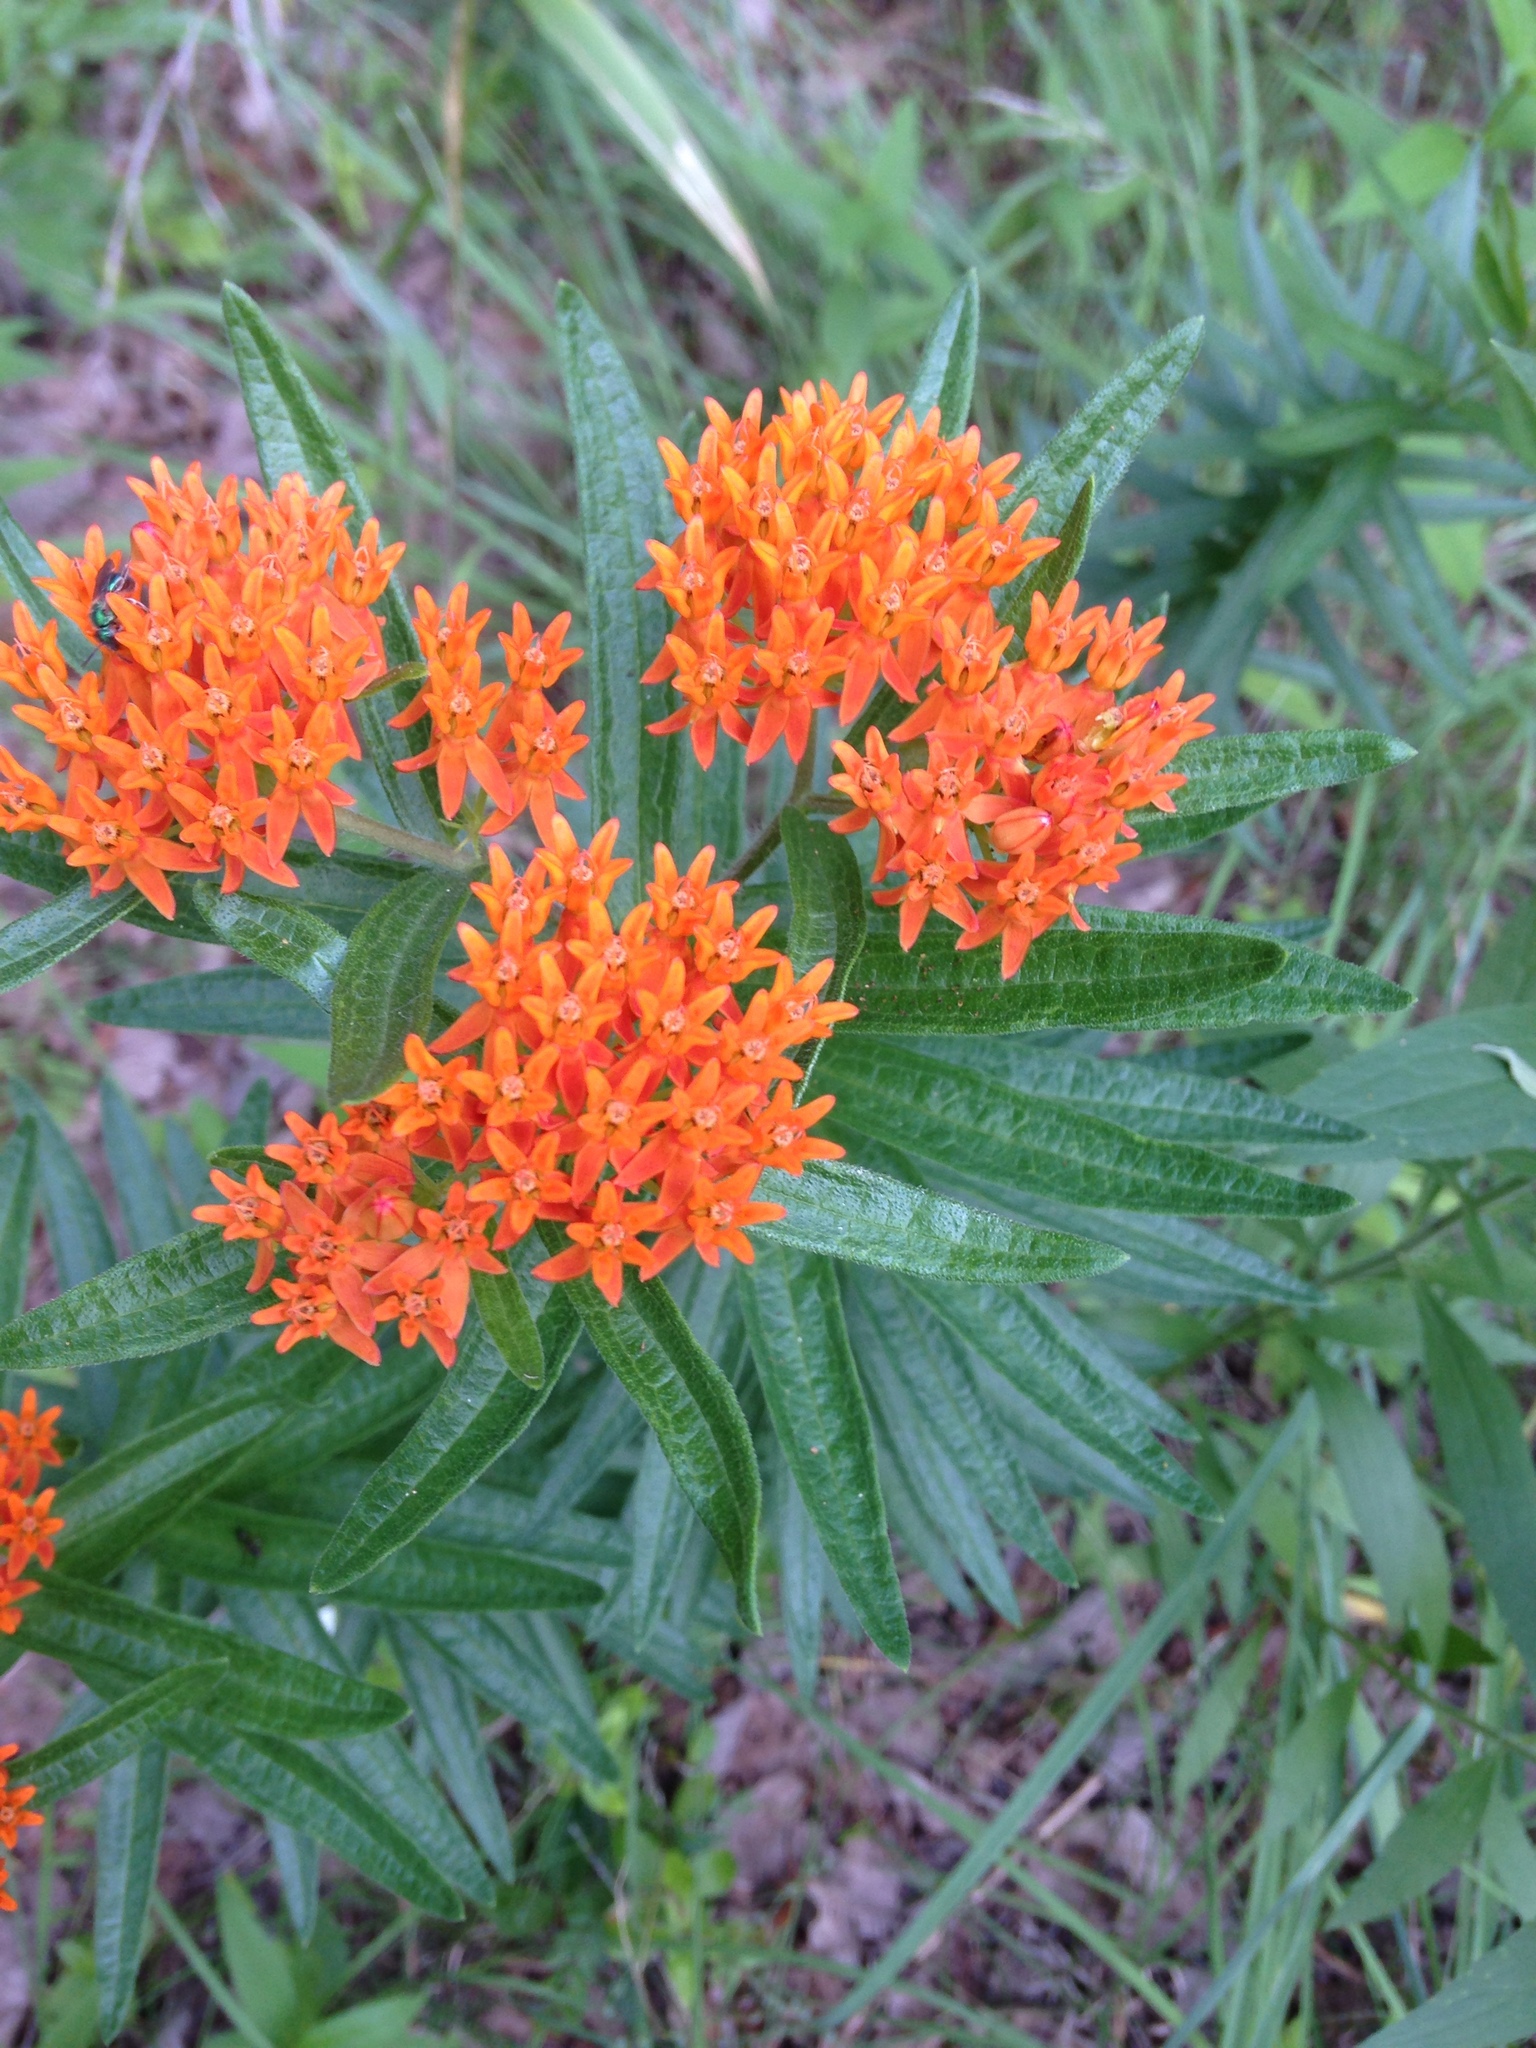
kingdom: Plantae
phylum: Tracheophyta
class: Magnoliopsida
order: Gentianales
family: Apocynaceae
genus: Asclepias
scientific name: Asclepias tuberosa
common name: Butterfly milkweed
